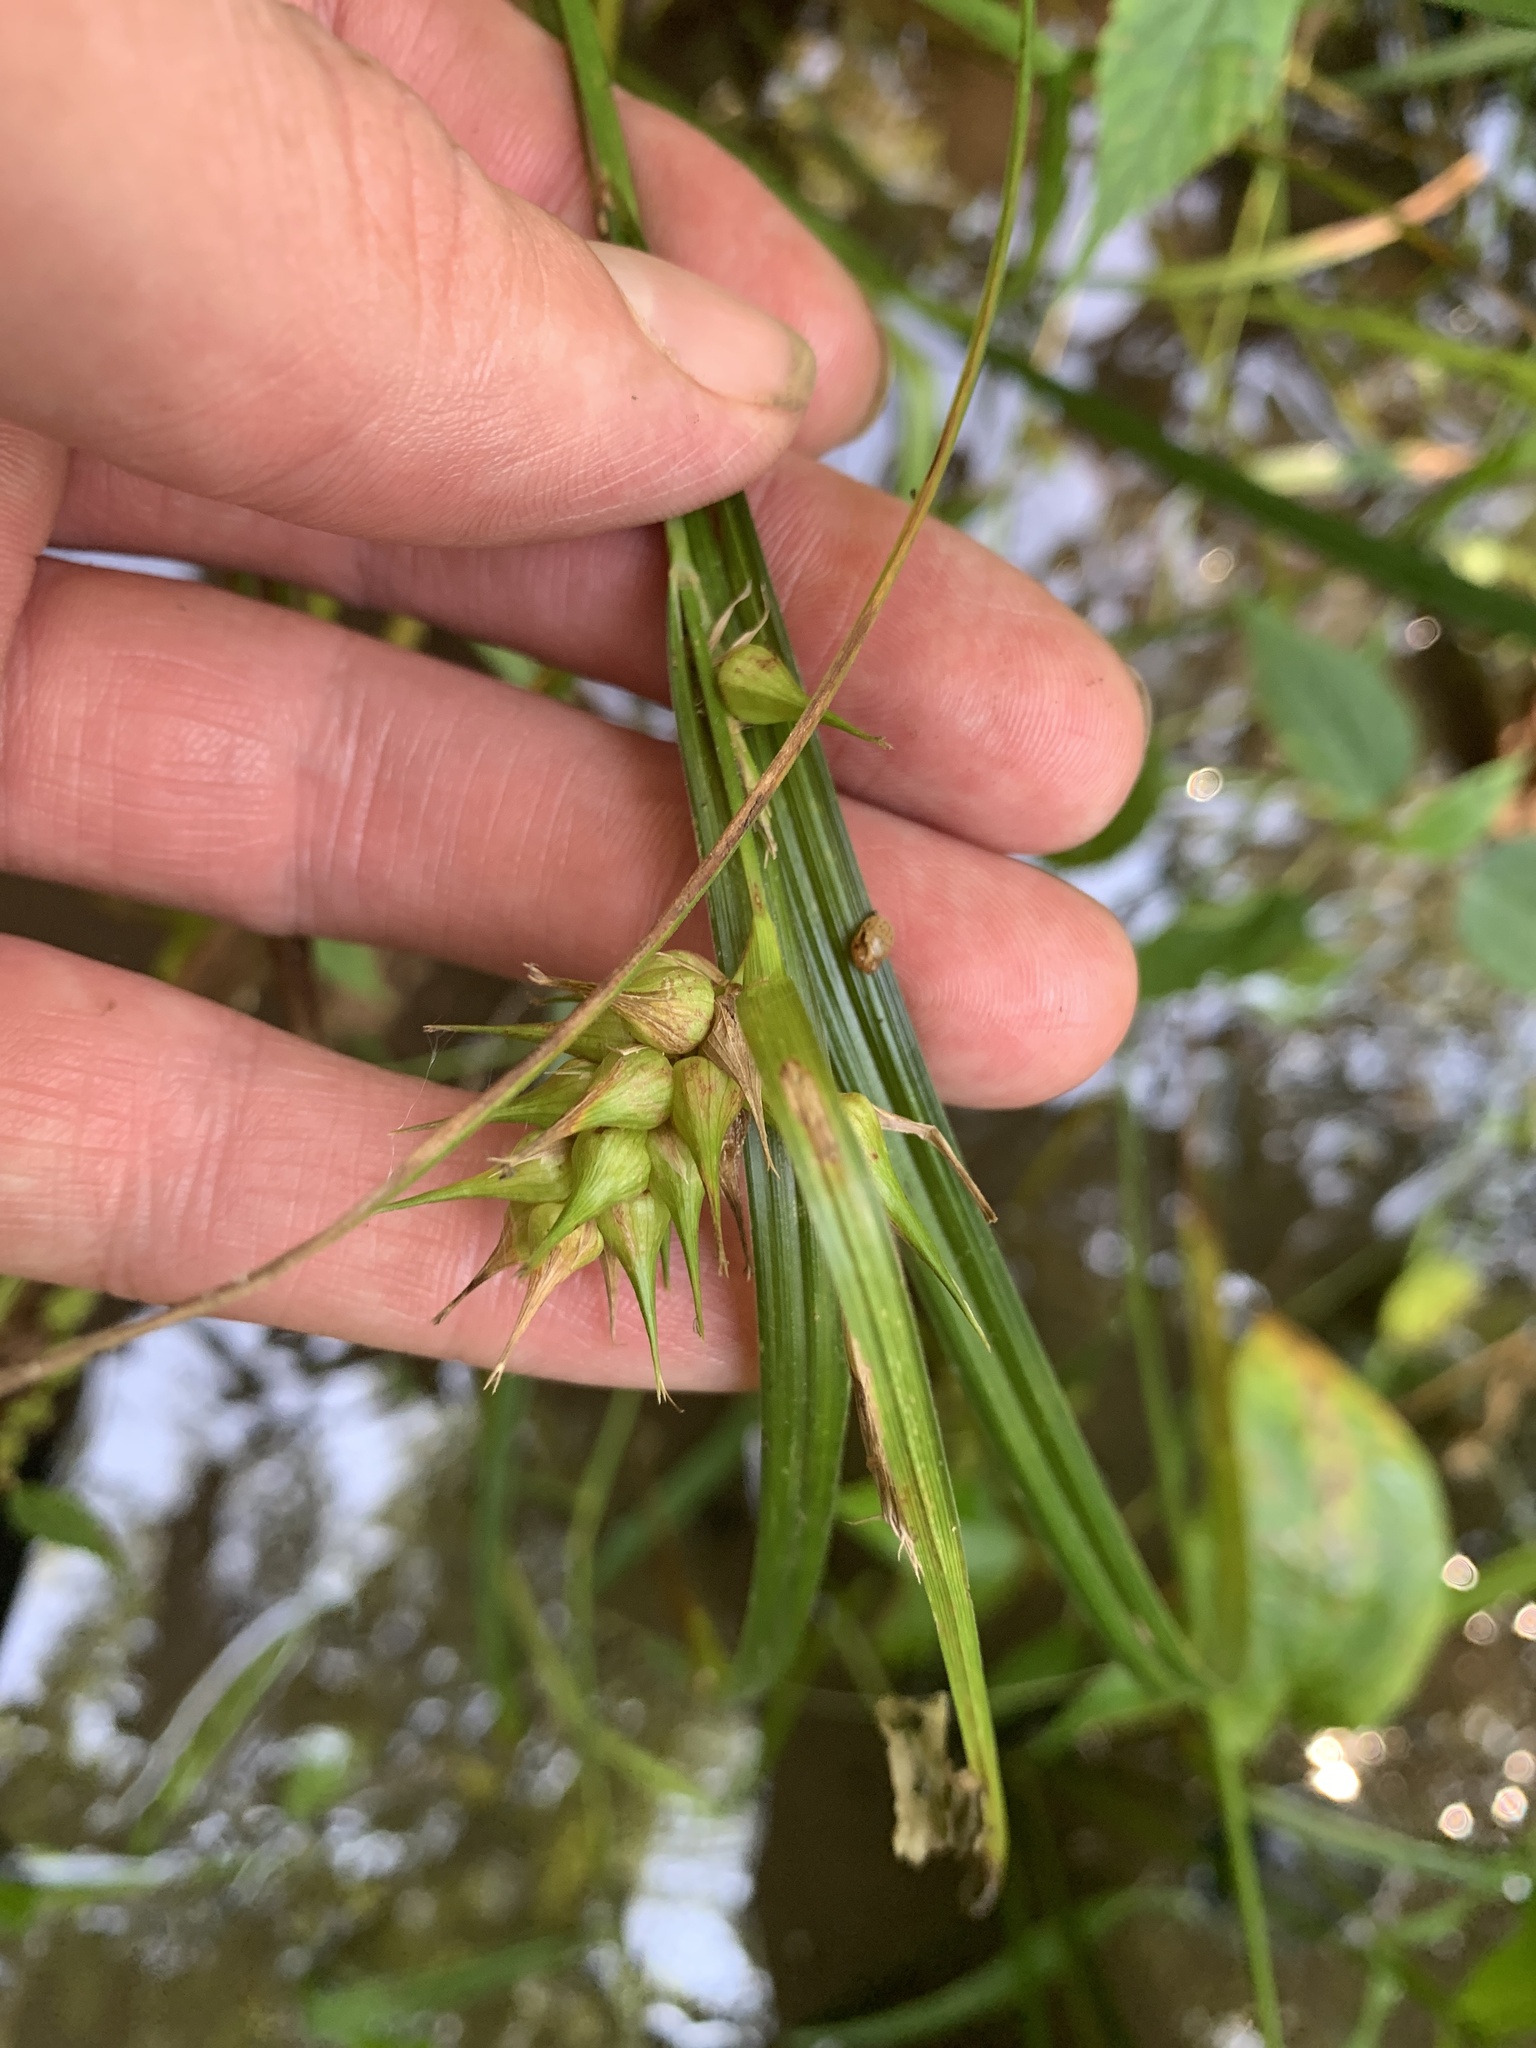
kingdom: Plantae
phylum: Tracheophyta
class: Liliopsida
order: Poales
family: Cyperaceae
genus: Carex
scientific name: Carex lupulina
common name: Hop sedge
